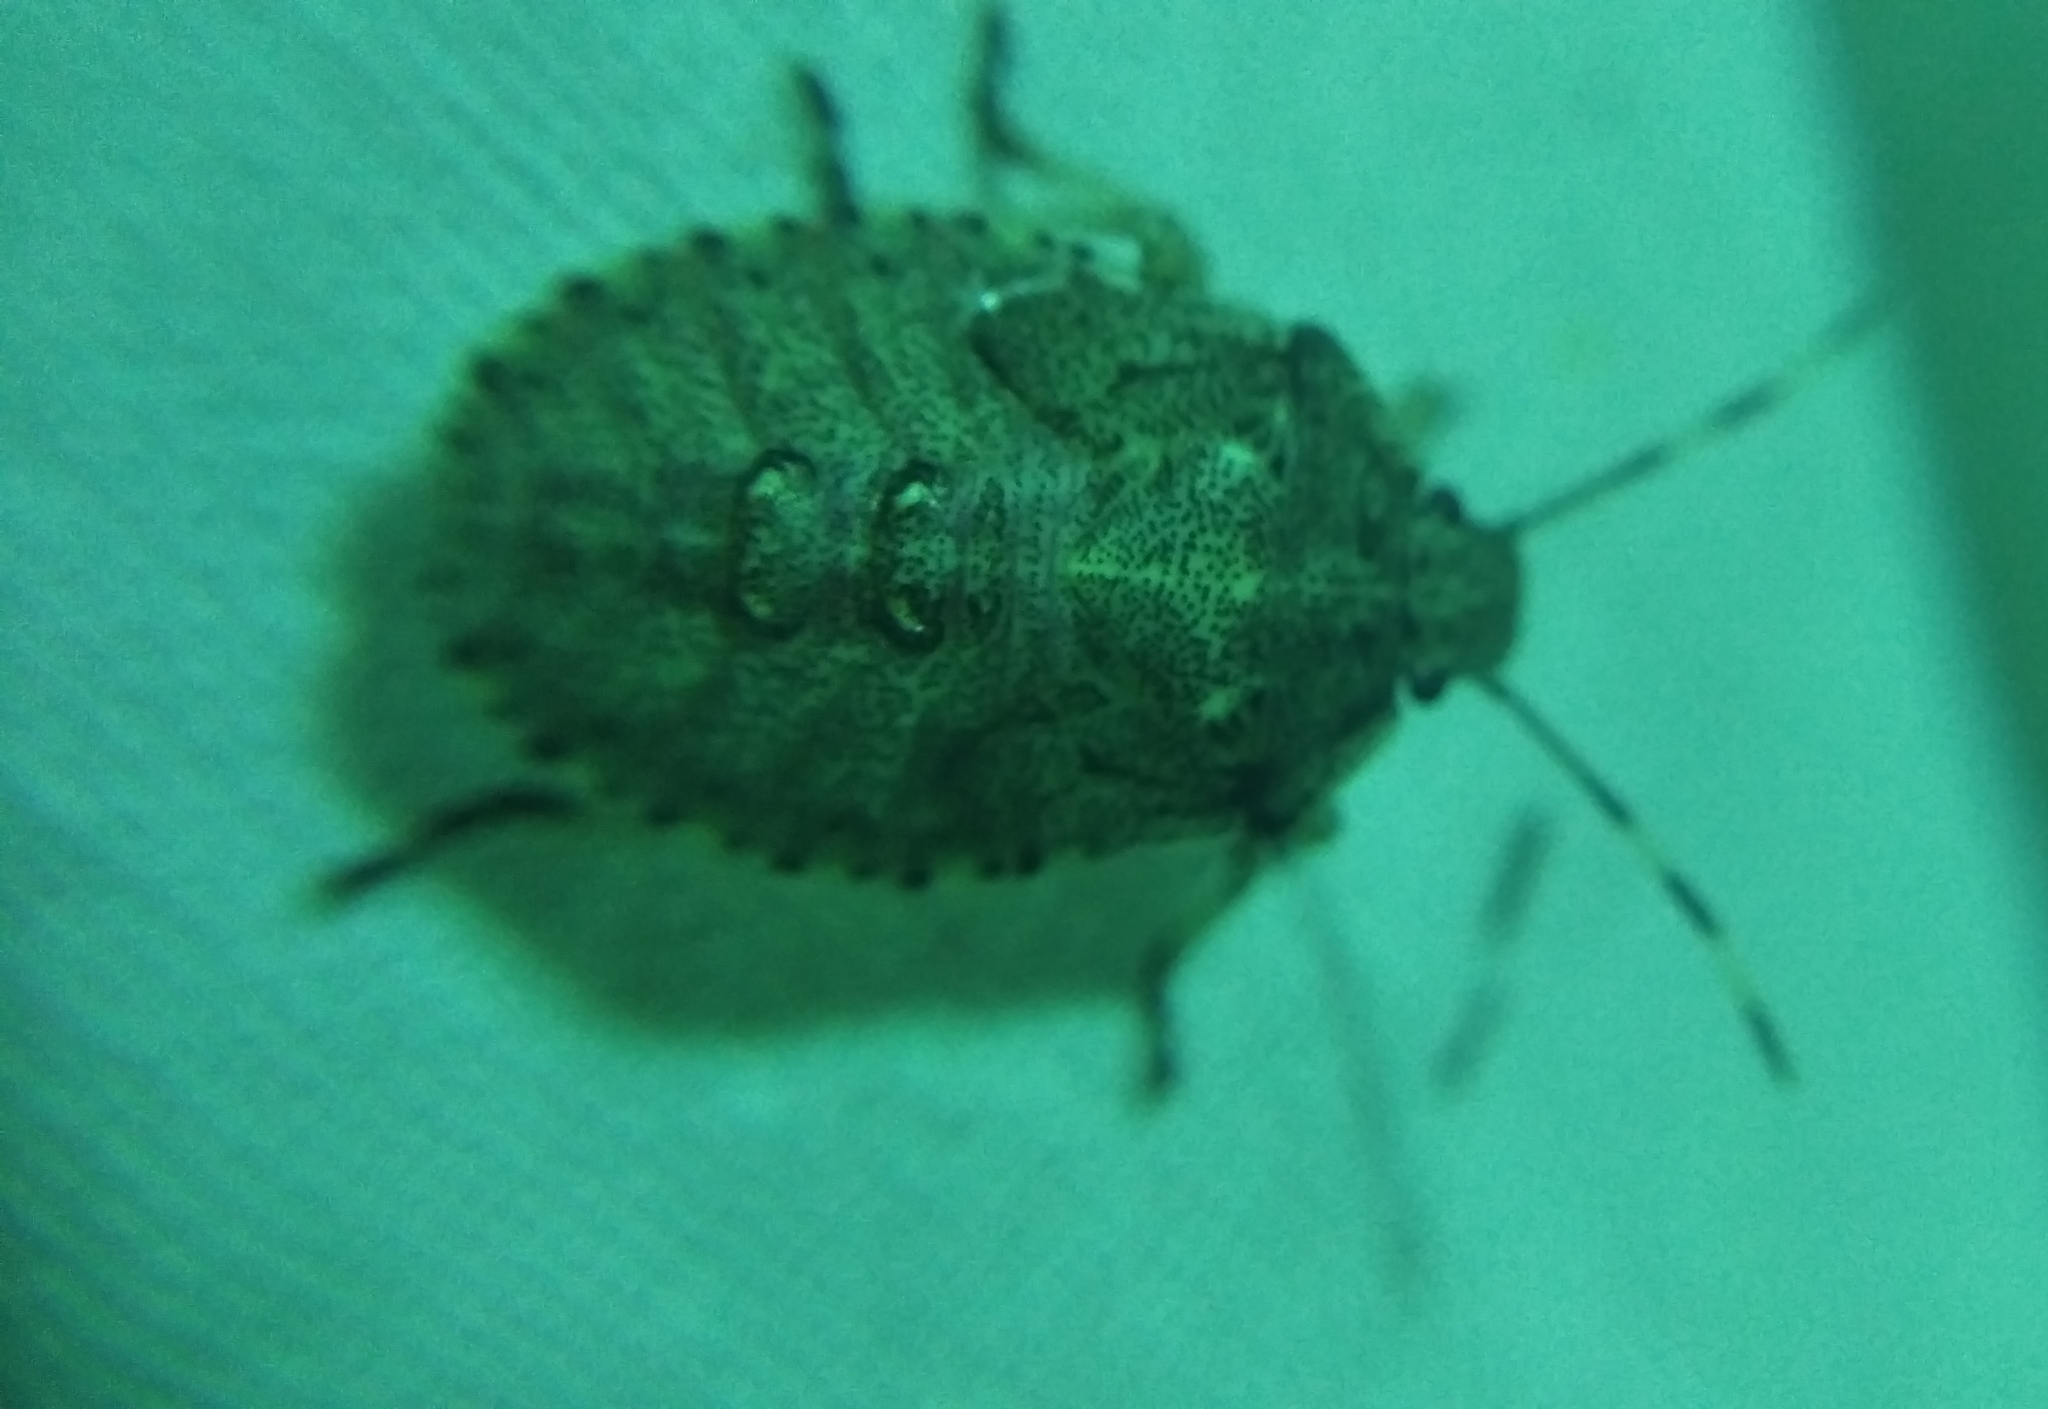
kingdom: Animalia
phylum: Arthropoda
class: Insecta
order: Hemiptera
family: Pentatomidae
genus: Rhaphigaster
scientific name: Rhaphigaster nebulosa
